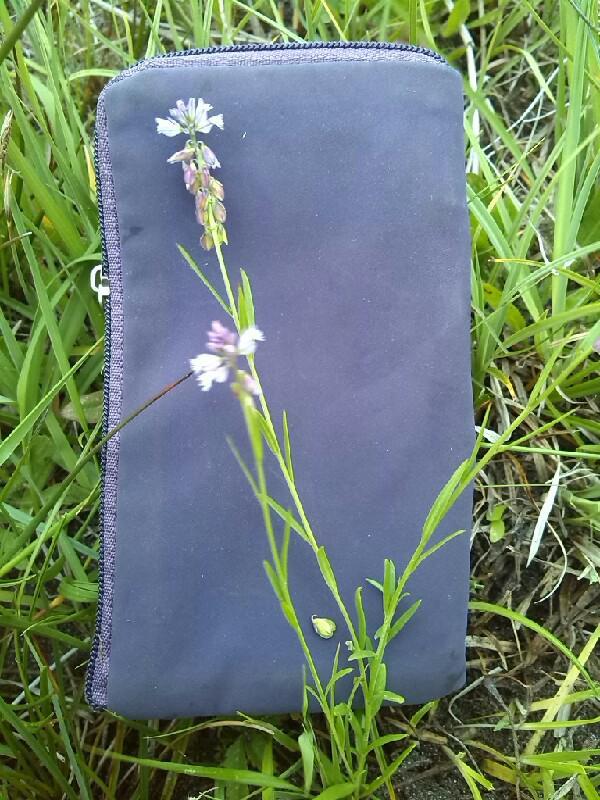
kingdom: Plantae
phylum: Tracheophyta
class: Magnoliopsida
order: Fabales
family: Polygalaceae
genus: Polygala
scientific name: Polygala vulgaris
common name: Common milkwort
